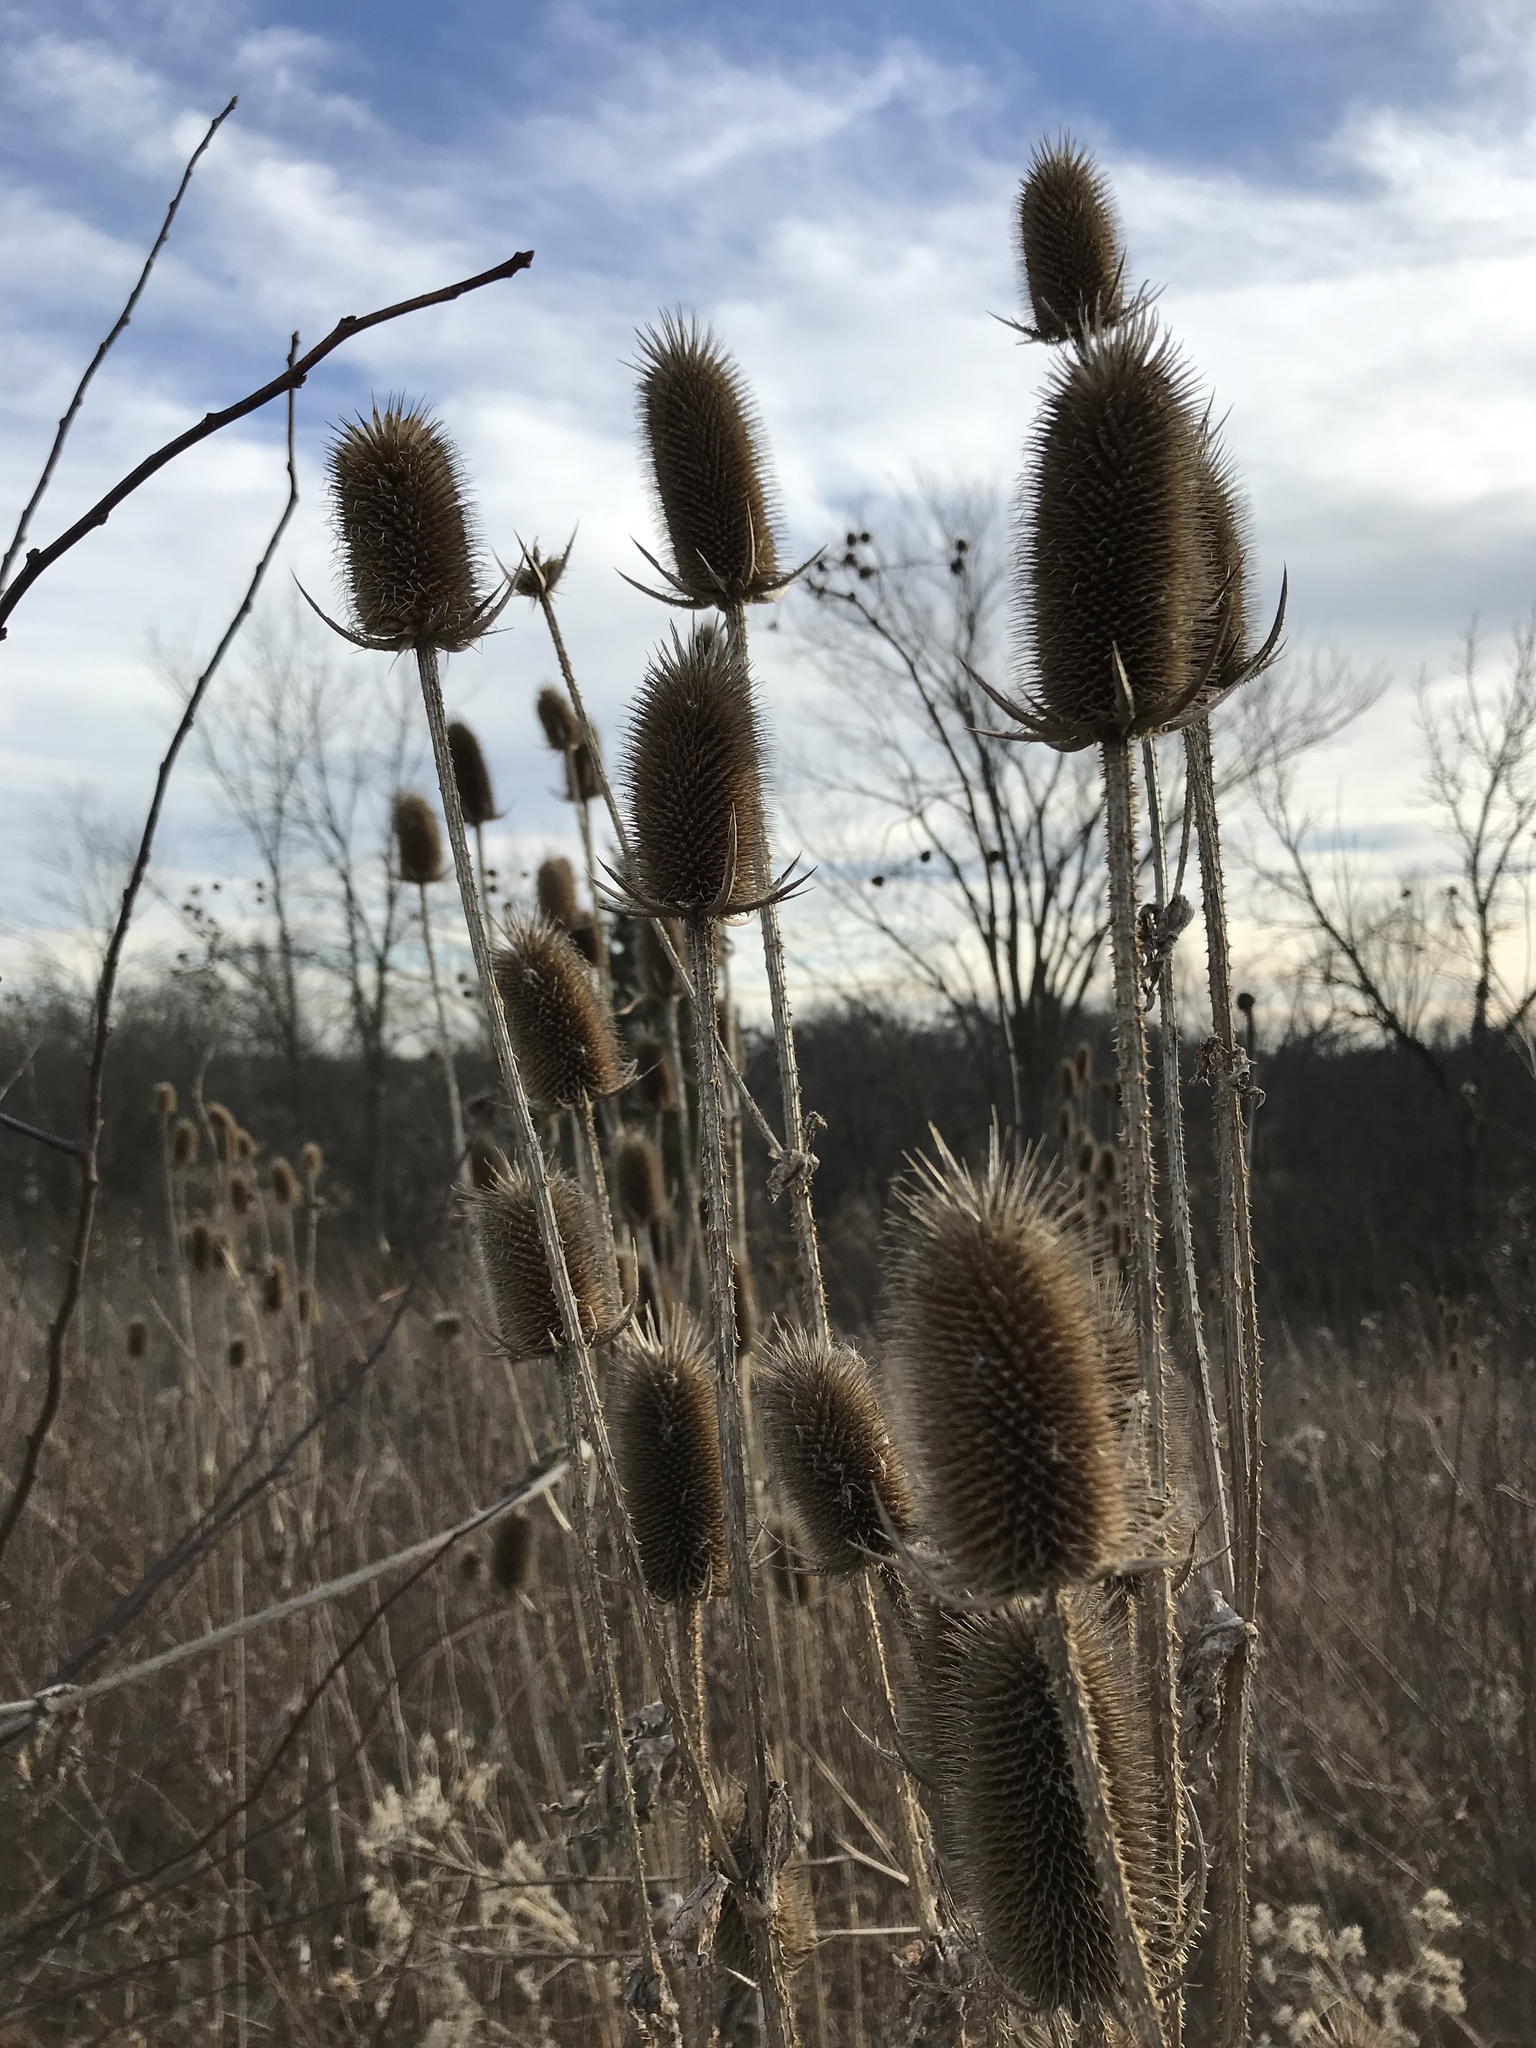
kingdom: Plantae
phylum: Tracheophyta
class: Magnoliopsida
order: Dipsacales
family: Caprifoliaceae
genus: Dipsacus
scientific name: Dipsacus laciniatus
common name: Cut-leaved teasel
